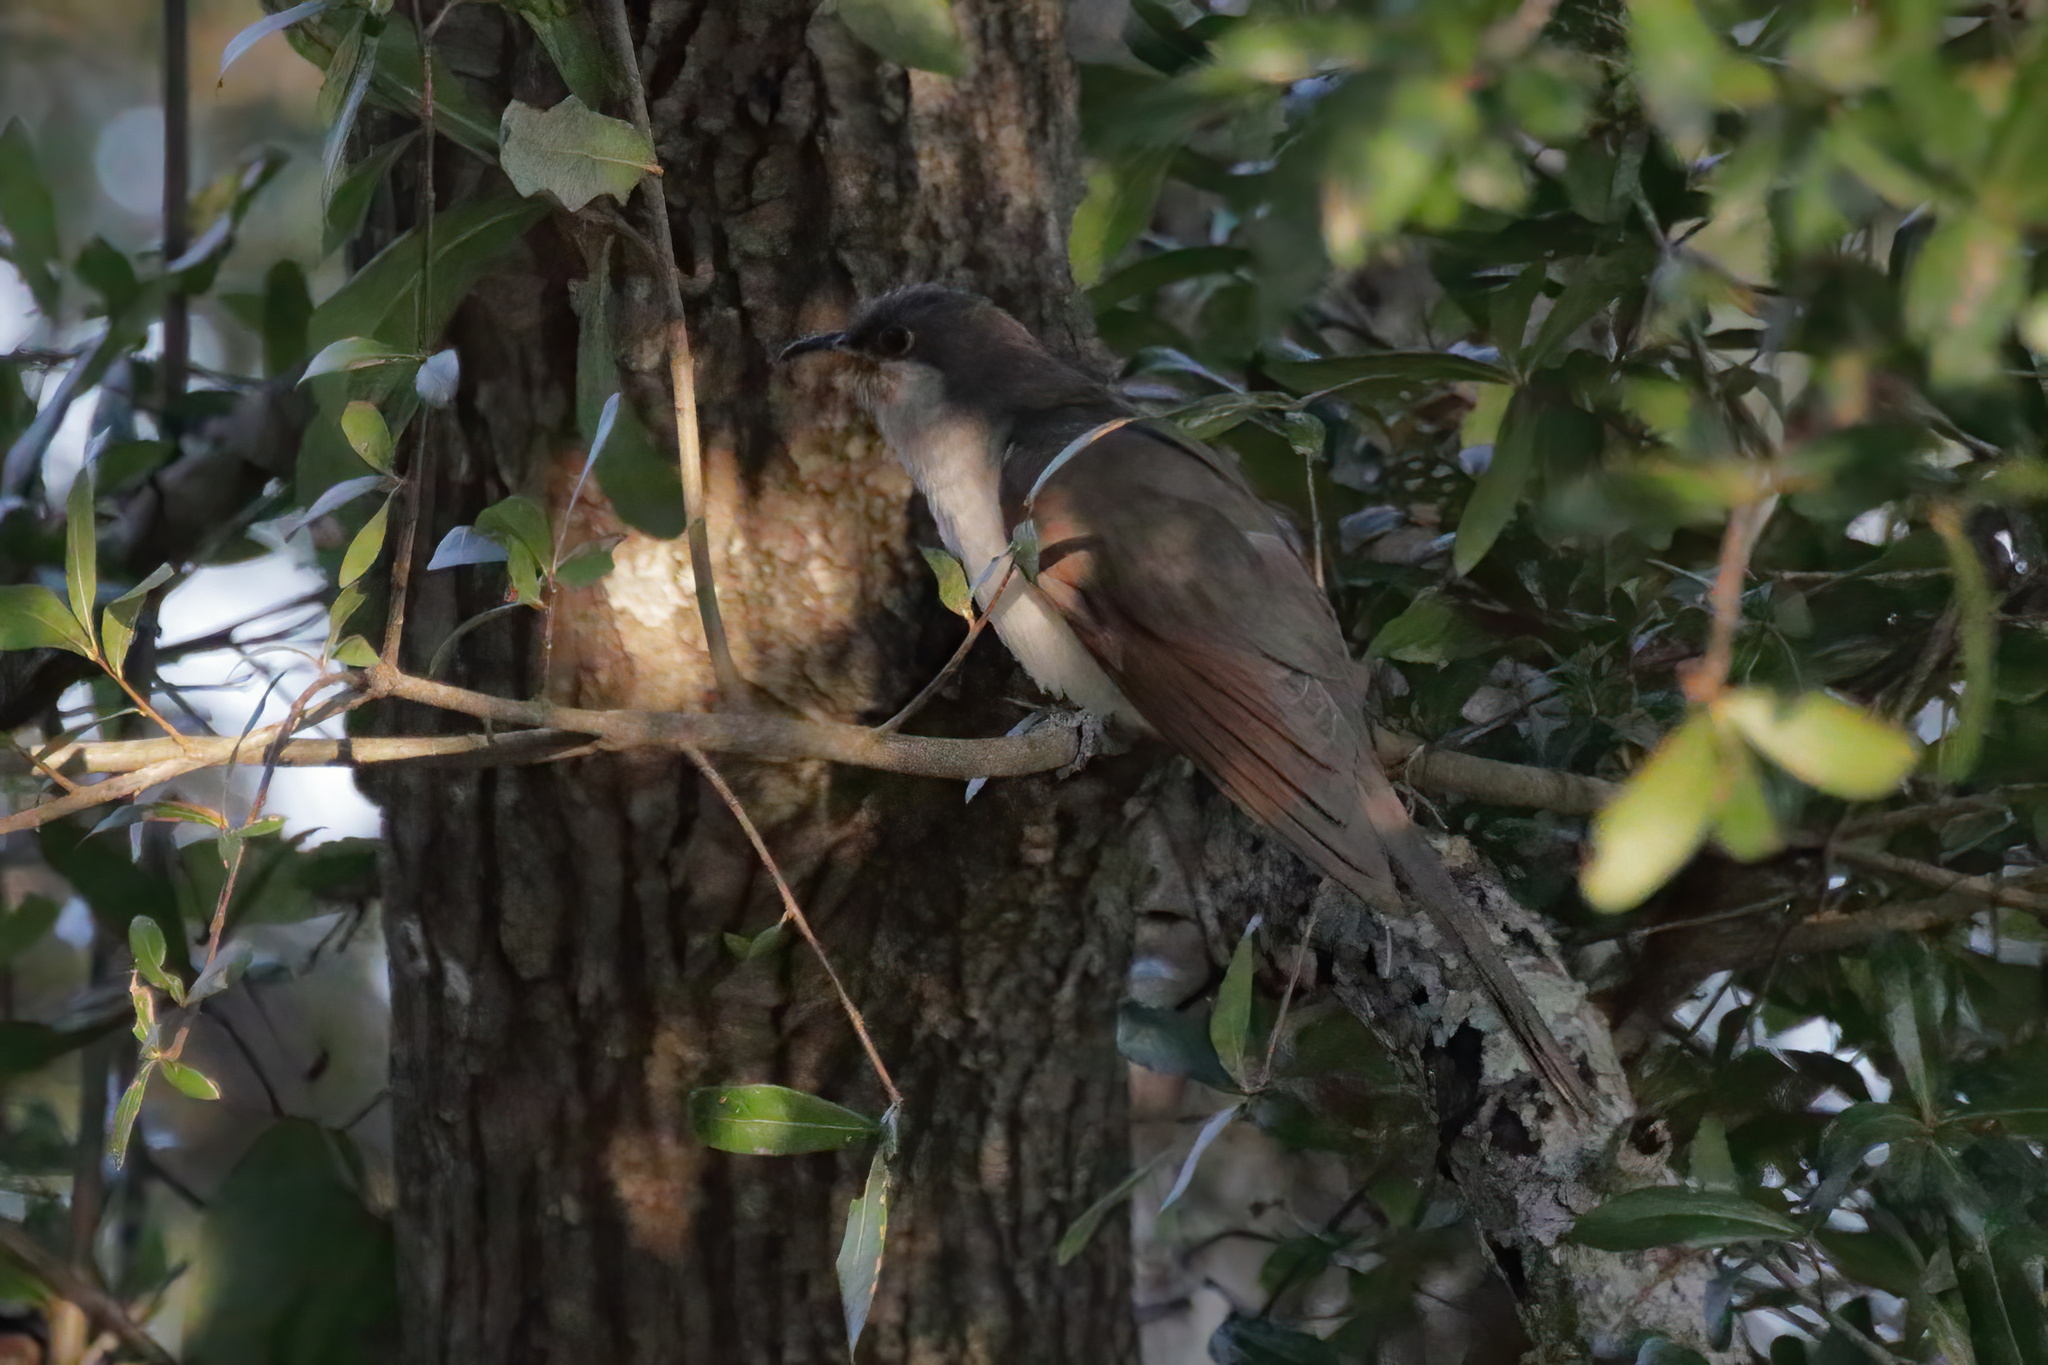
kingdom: Animalia
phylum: Chordata
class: Aves
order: Cuculiformes
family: Cuculidae
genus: Coccyzus
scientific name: Coccyzus americanus
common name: Yellow-billed cuckoo
